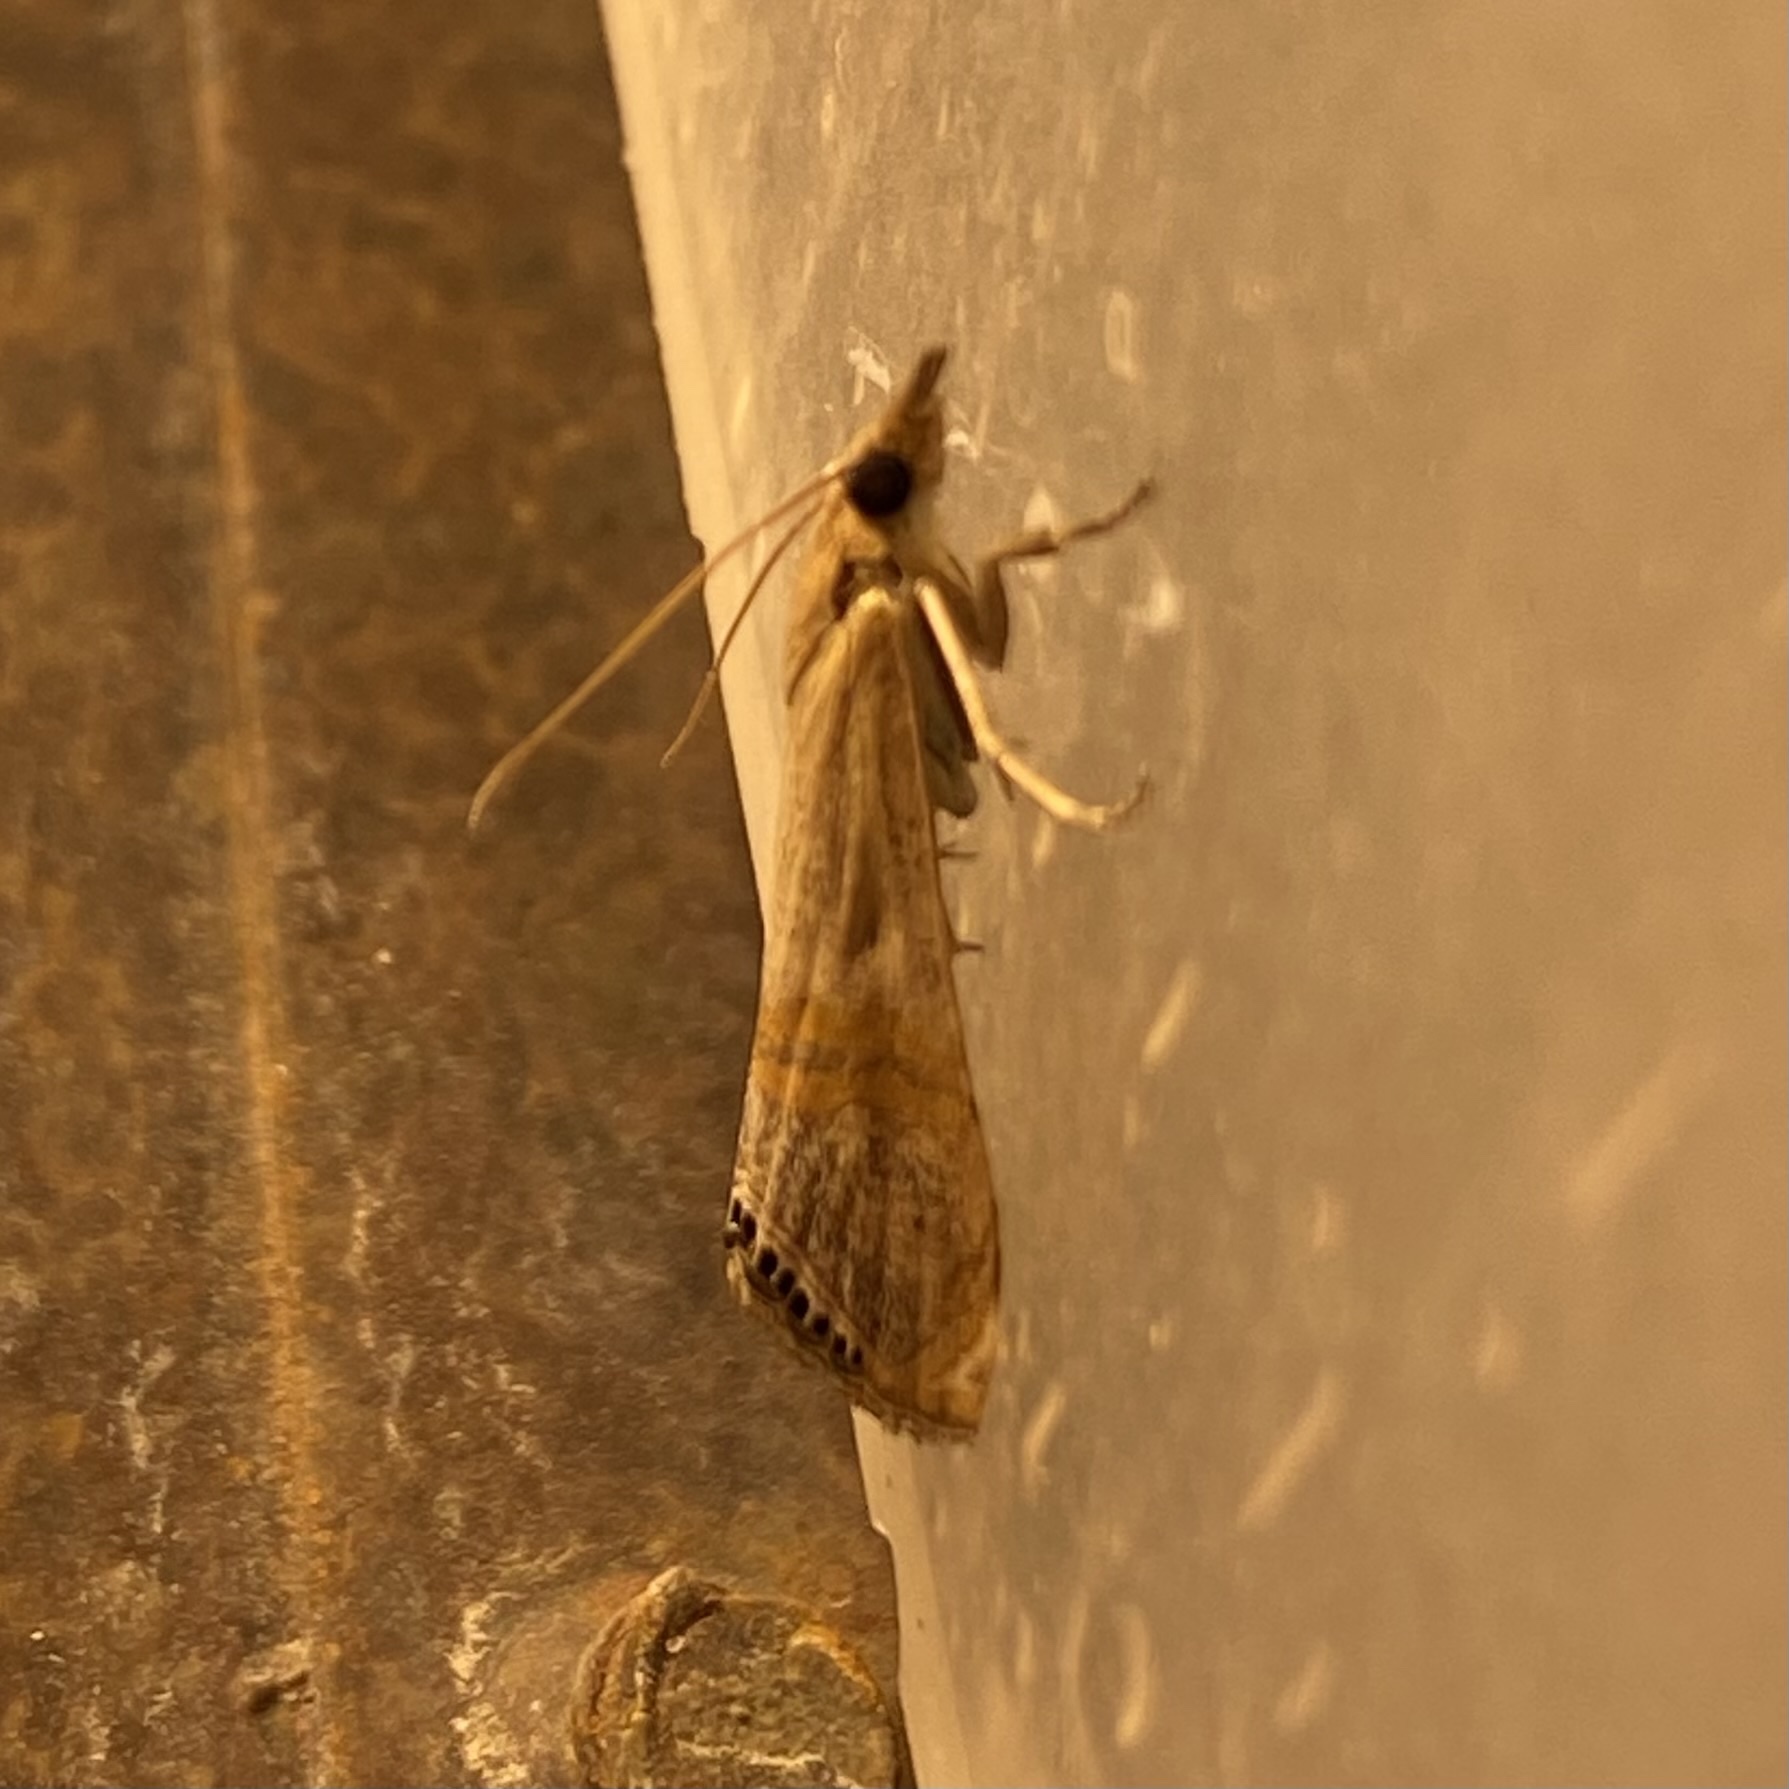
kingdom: Animalia
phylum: Arthropoda
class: Insecta
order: Lepidoptera
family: Crambidae
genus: Euchromius
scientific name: Euchromius ocellea
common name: Necklace veneer moth
